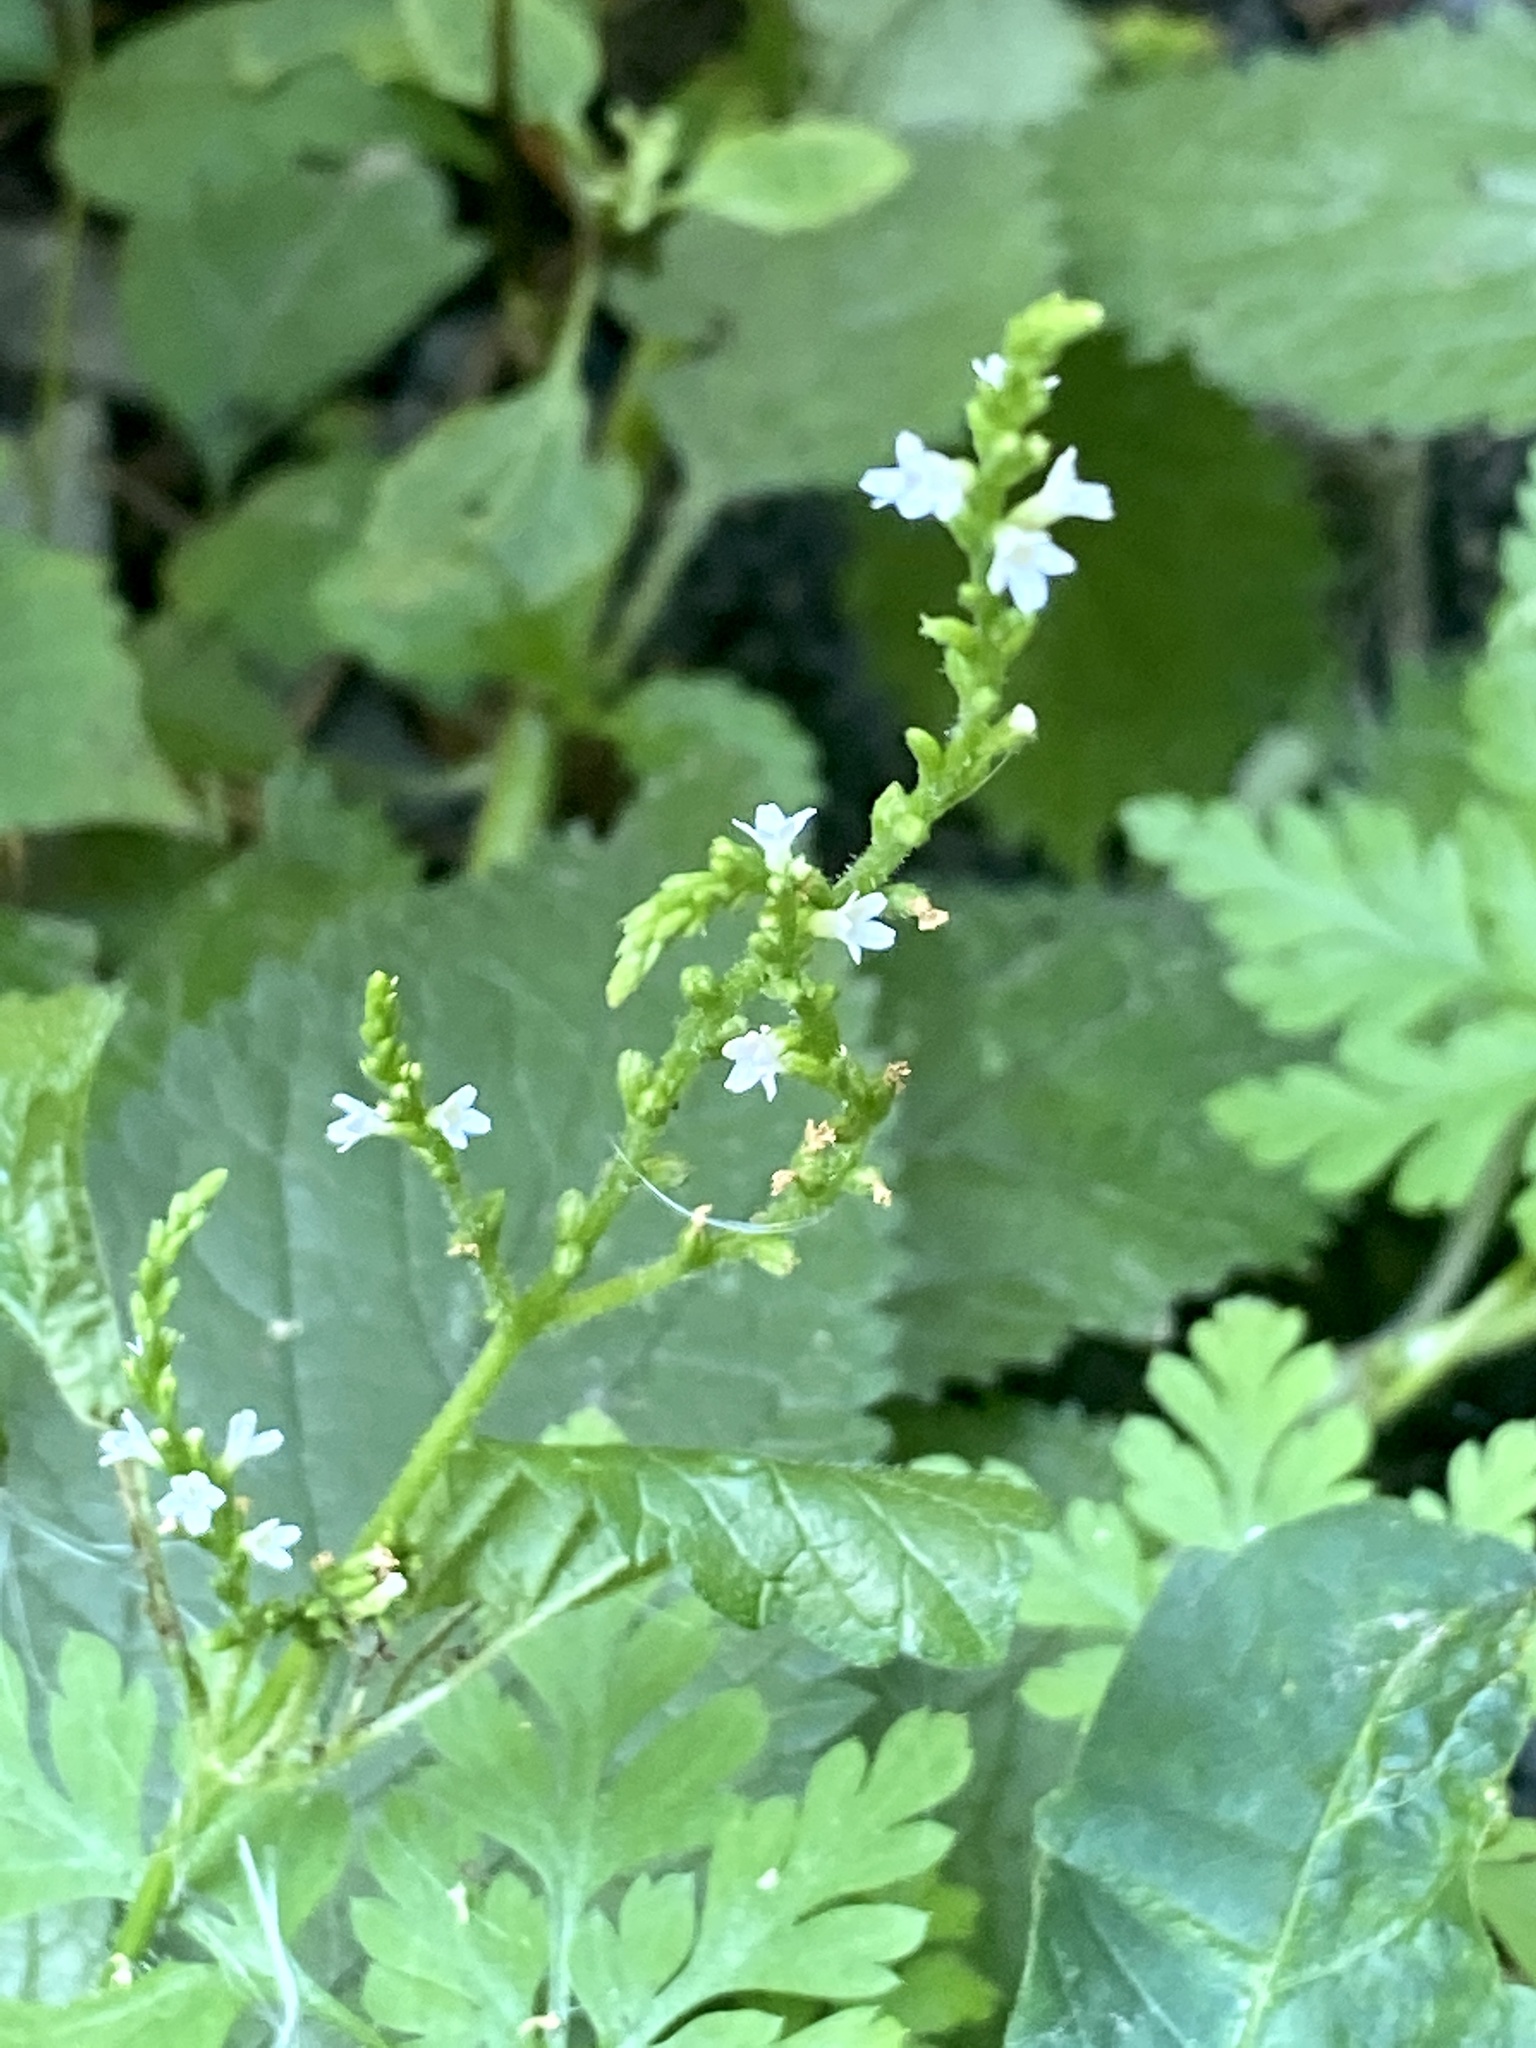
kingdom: Plantae
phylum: Tracheophyta
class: Magnoliopsida
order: Lamiales
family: Verbenaceae
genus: Verbena
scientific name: Verbena urticifolia
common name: Nettle-leaved vervain
